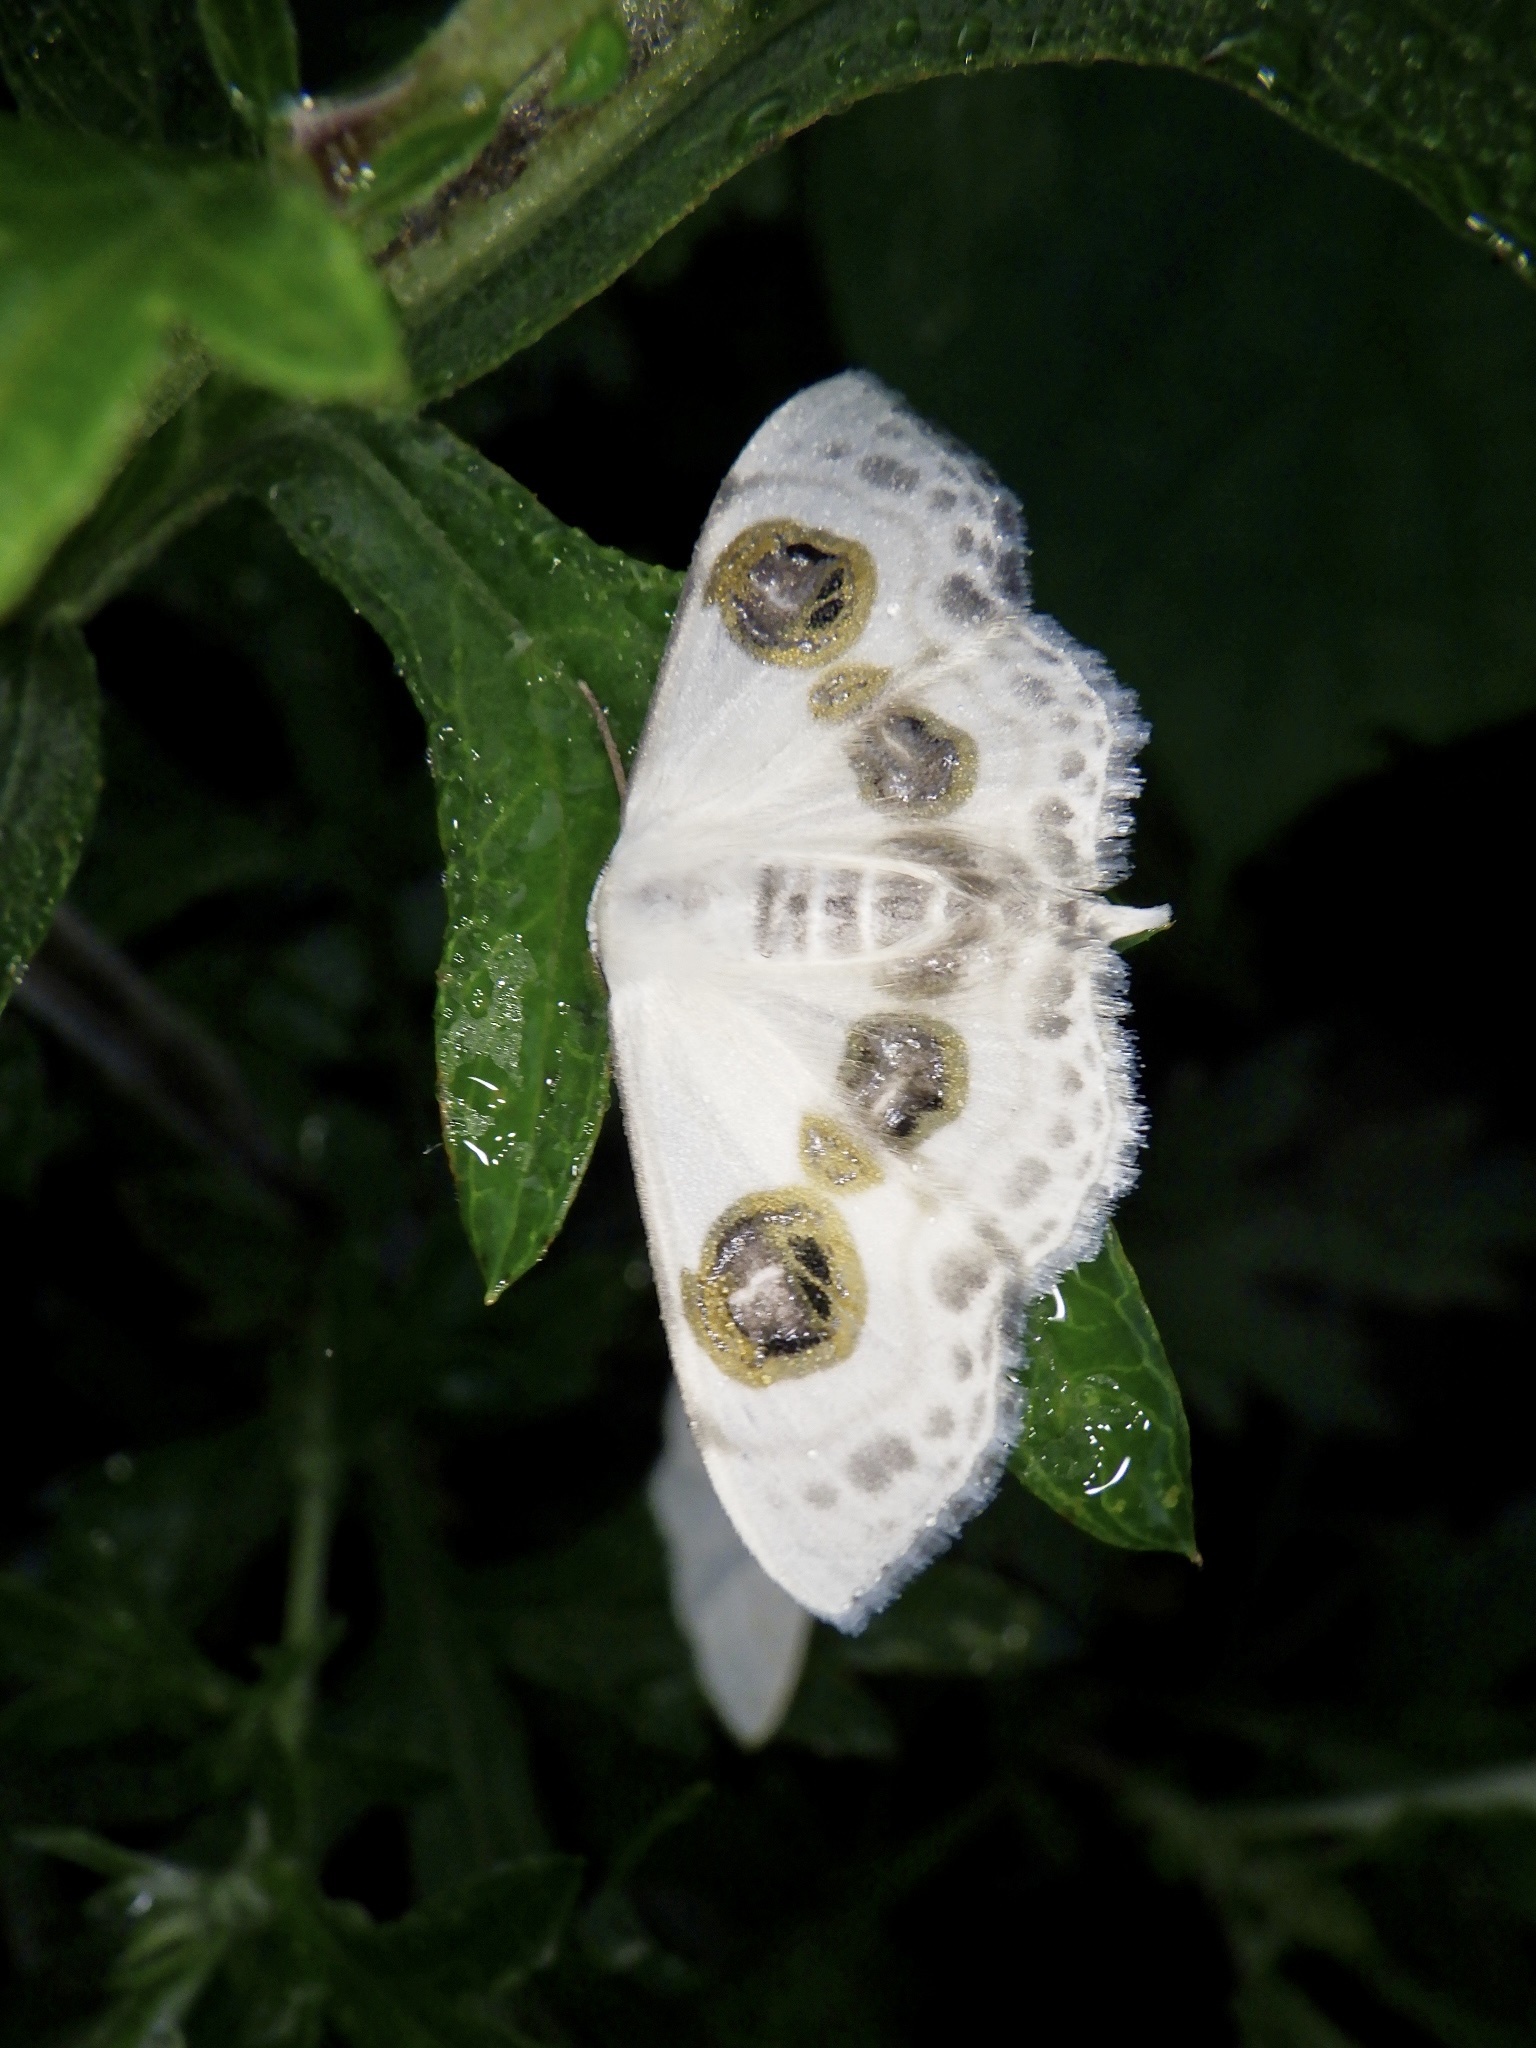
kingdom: Animalia
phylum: Arthropoda
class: Insecta
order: Lepidoptera
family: Geometridae
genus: Problepsis
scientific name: Problepsis diazoma
